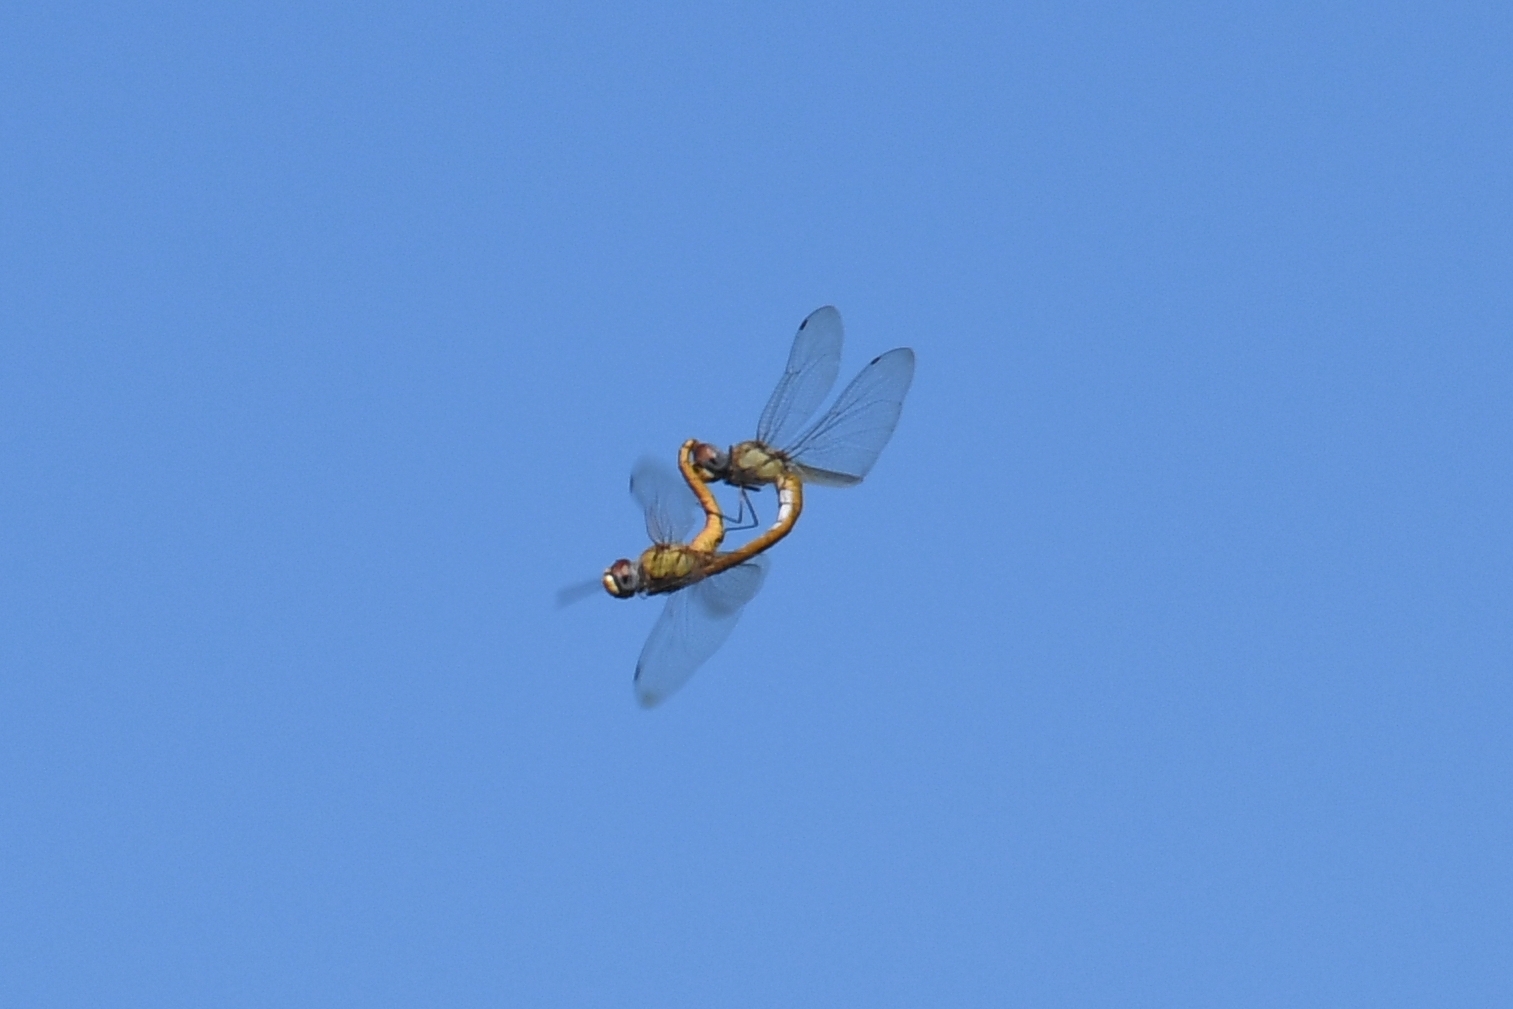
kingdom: Animalia
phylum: Arthropoda
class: Insecta
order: Odonata
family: Libellulidae
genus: Pantala
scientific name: Pantala flavescens
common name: Wandering glider
